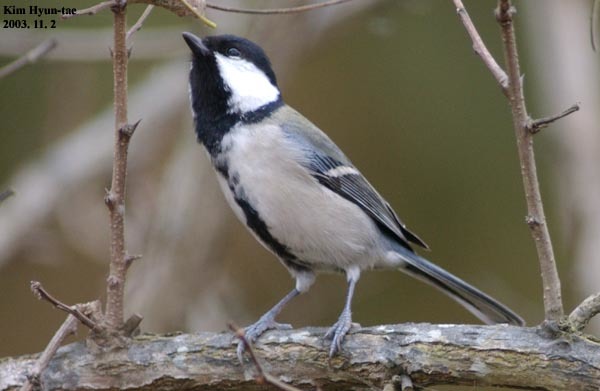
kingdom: Animalia
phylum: Chordata
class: Aves
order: Passeriformes
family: Paridae
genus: Parus
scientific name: Parus minor
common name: Japanese tit
